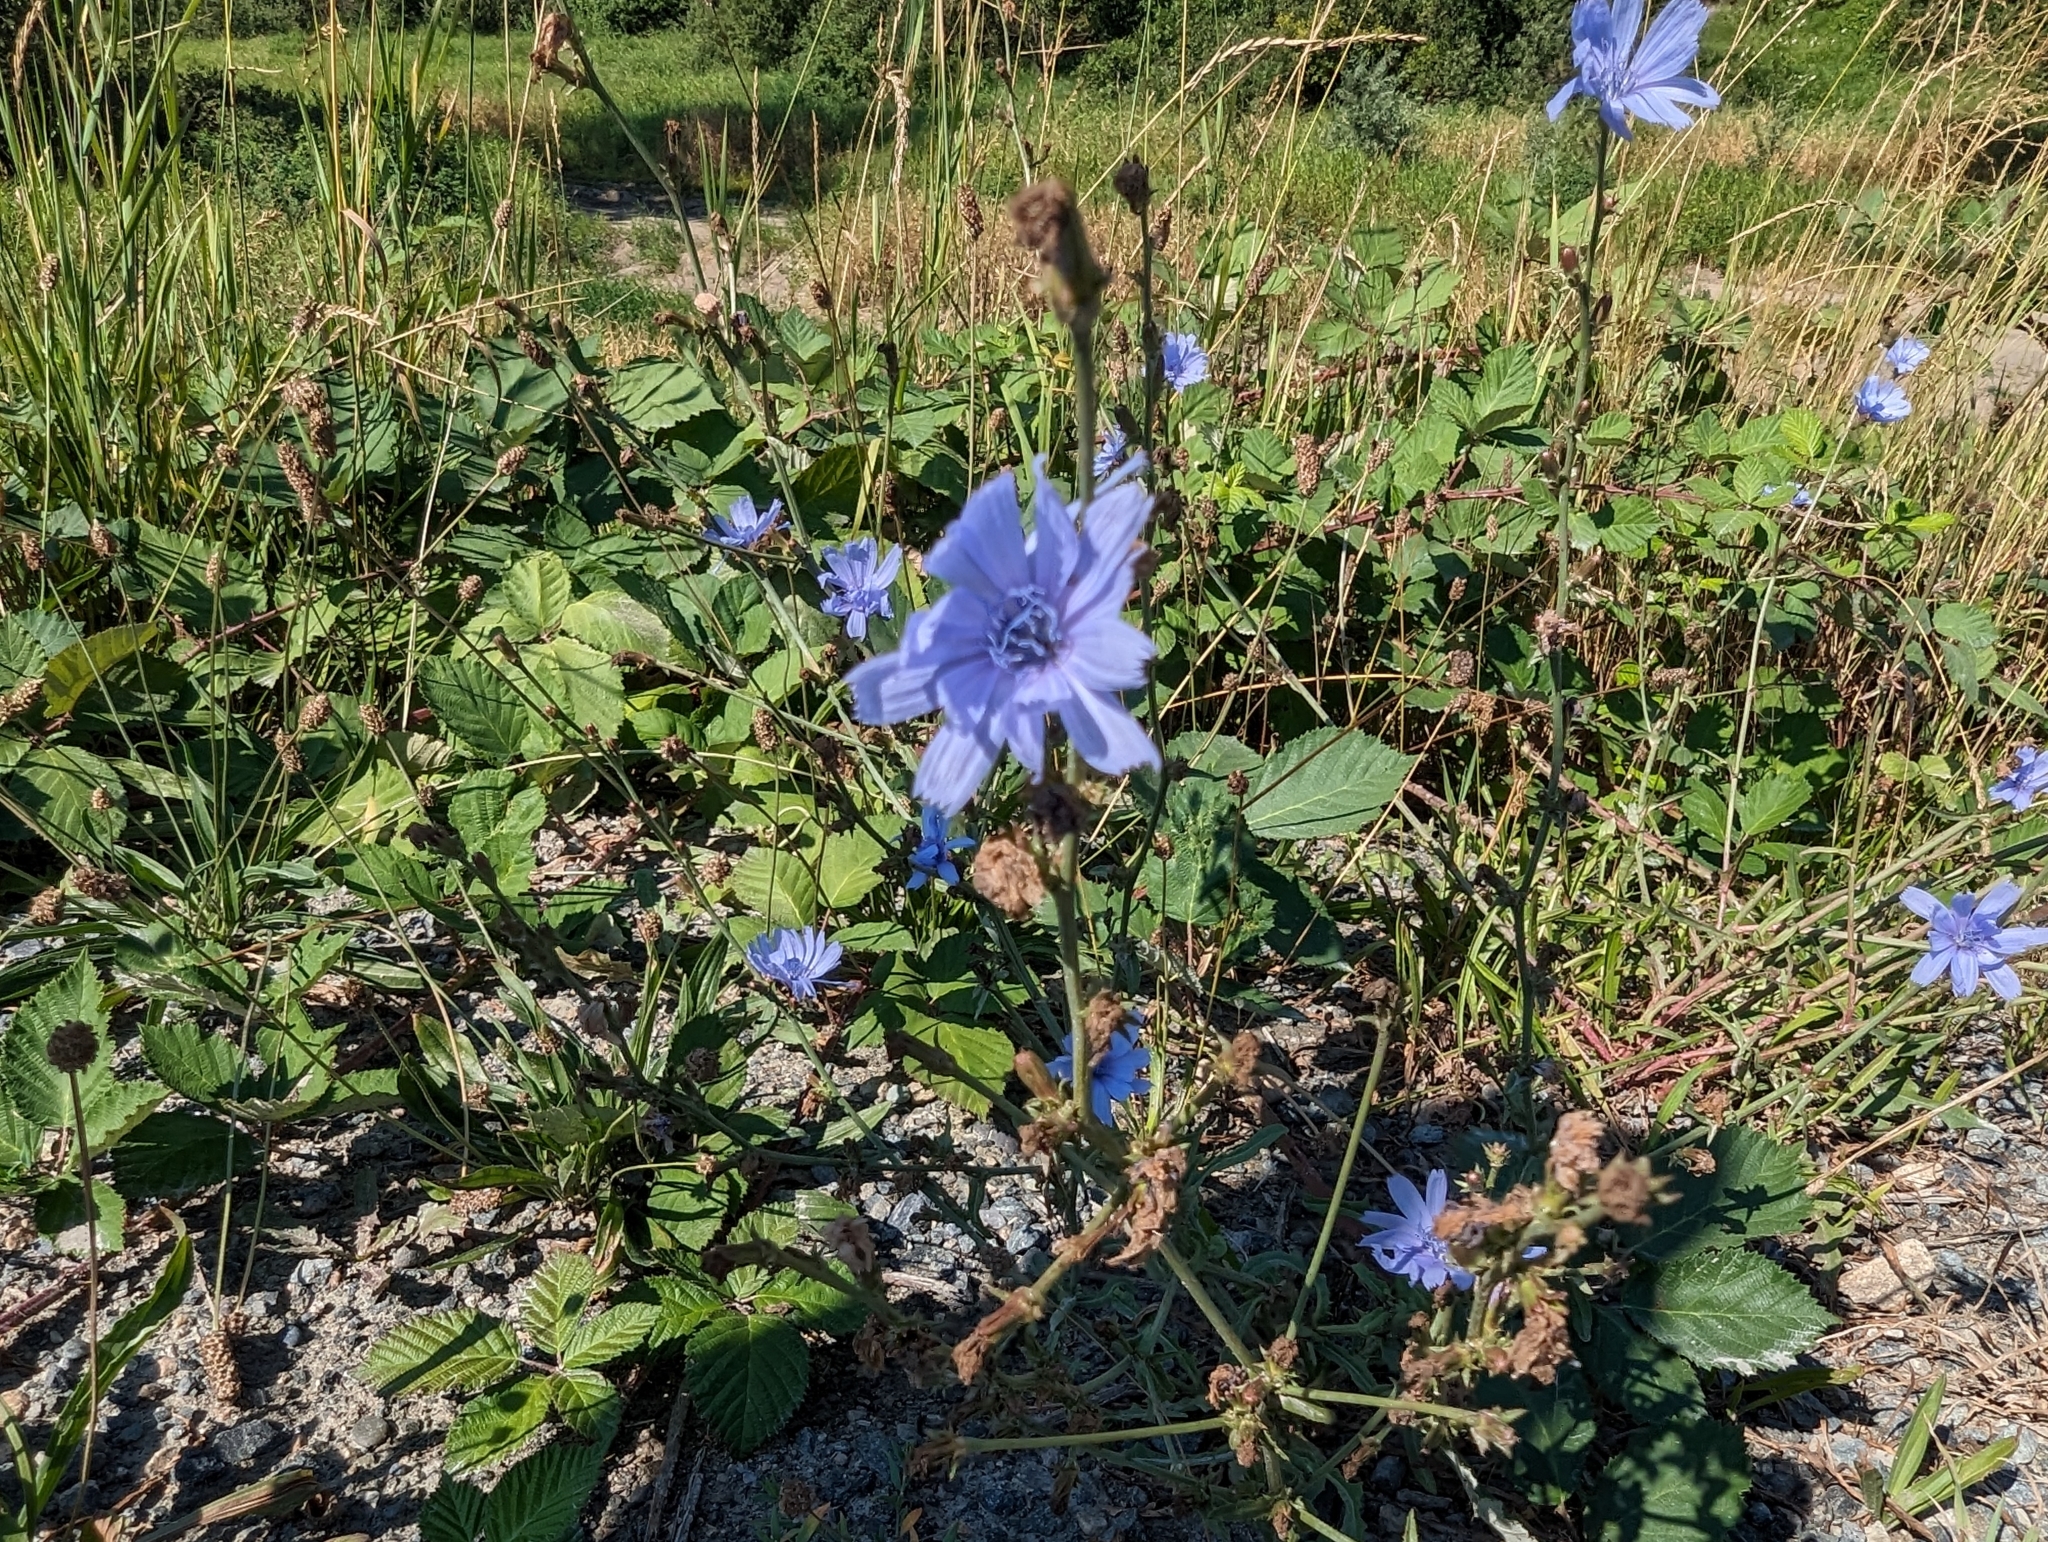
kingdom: Plantae
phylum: Tracheophyta
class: Magnoliopsida
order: Asterales
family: Asteraceae
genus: Cichorium
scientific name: Cichorium intybus
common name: Chicory
